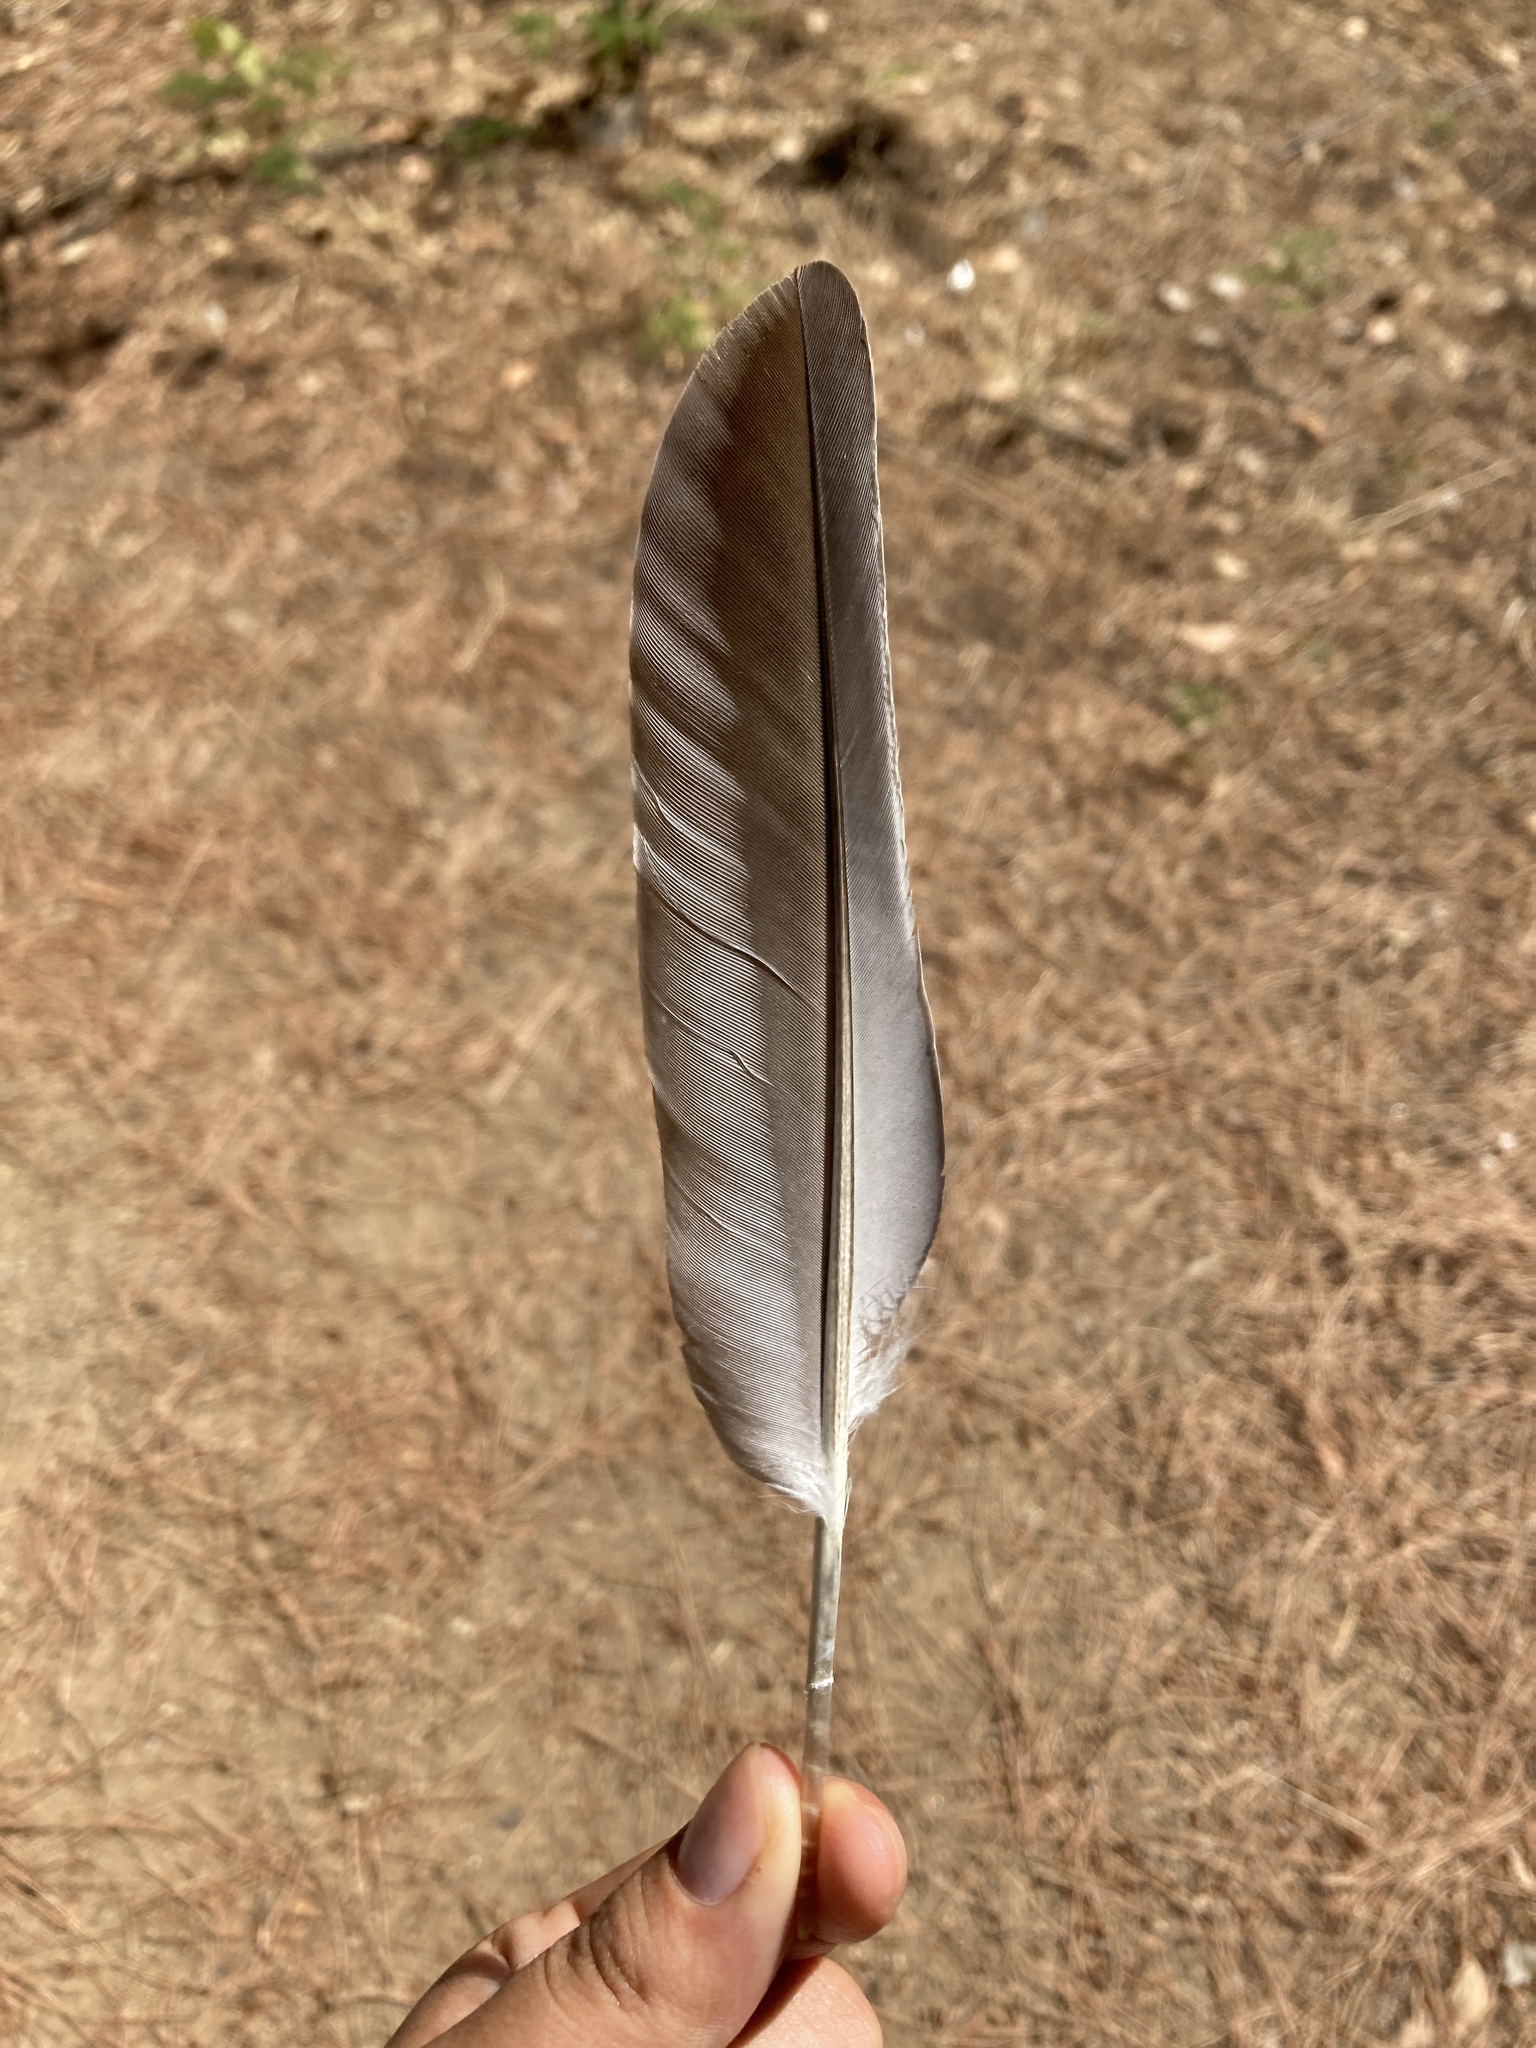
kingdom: Animalia
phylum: Chordata
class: Aves
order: Columbiformes
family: Columbidae
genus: Columba
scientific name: Columba palumbus
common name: Common wood pigeon
